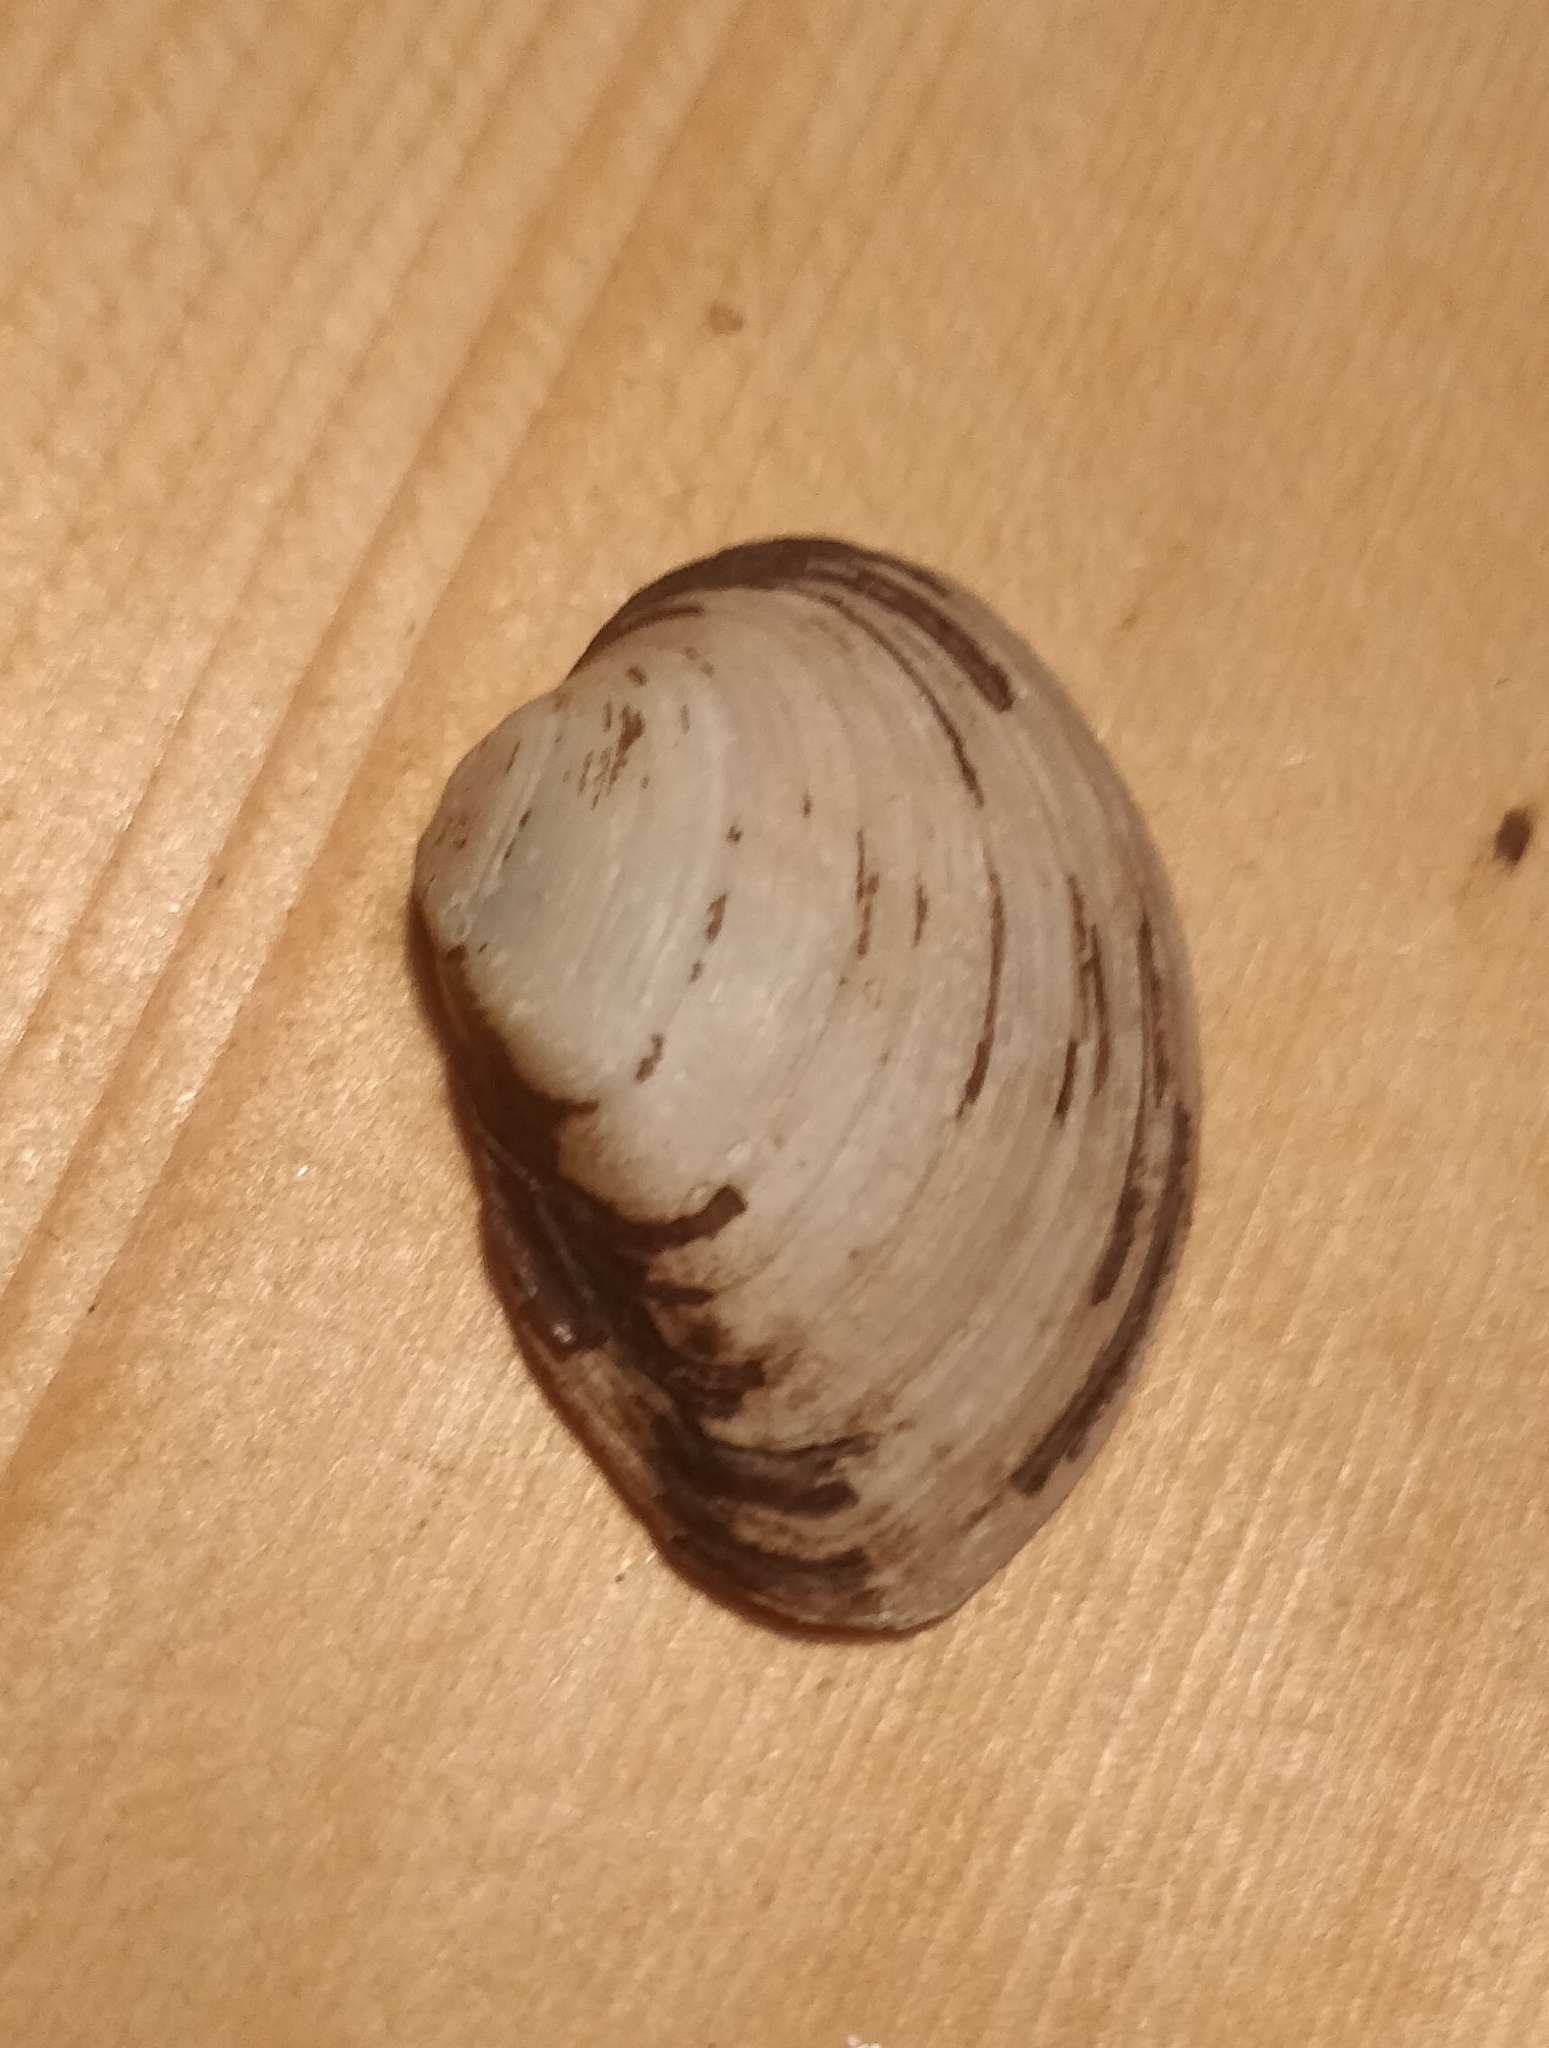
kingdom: Animalia
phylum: Mollusca
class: Bivalvia
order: Unionida
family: Unionidae
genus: Truncilla
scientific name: Truncilla truncata
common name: Deertoe
